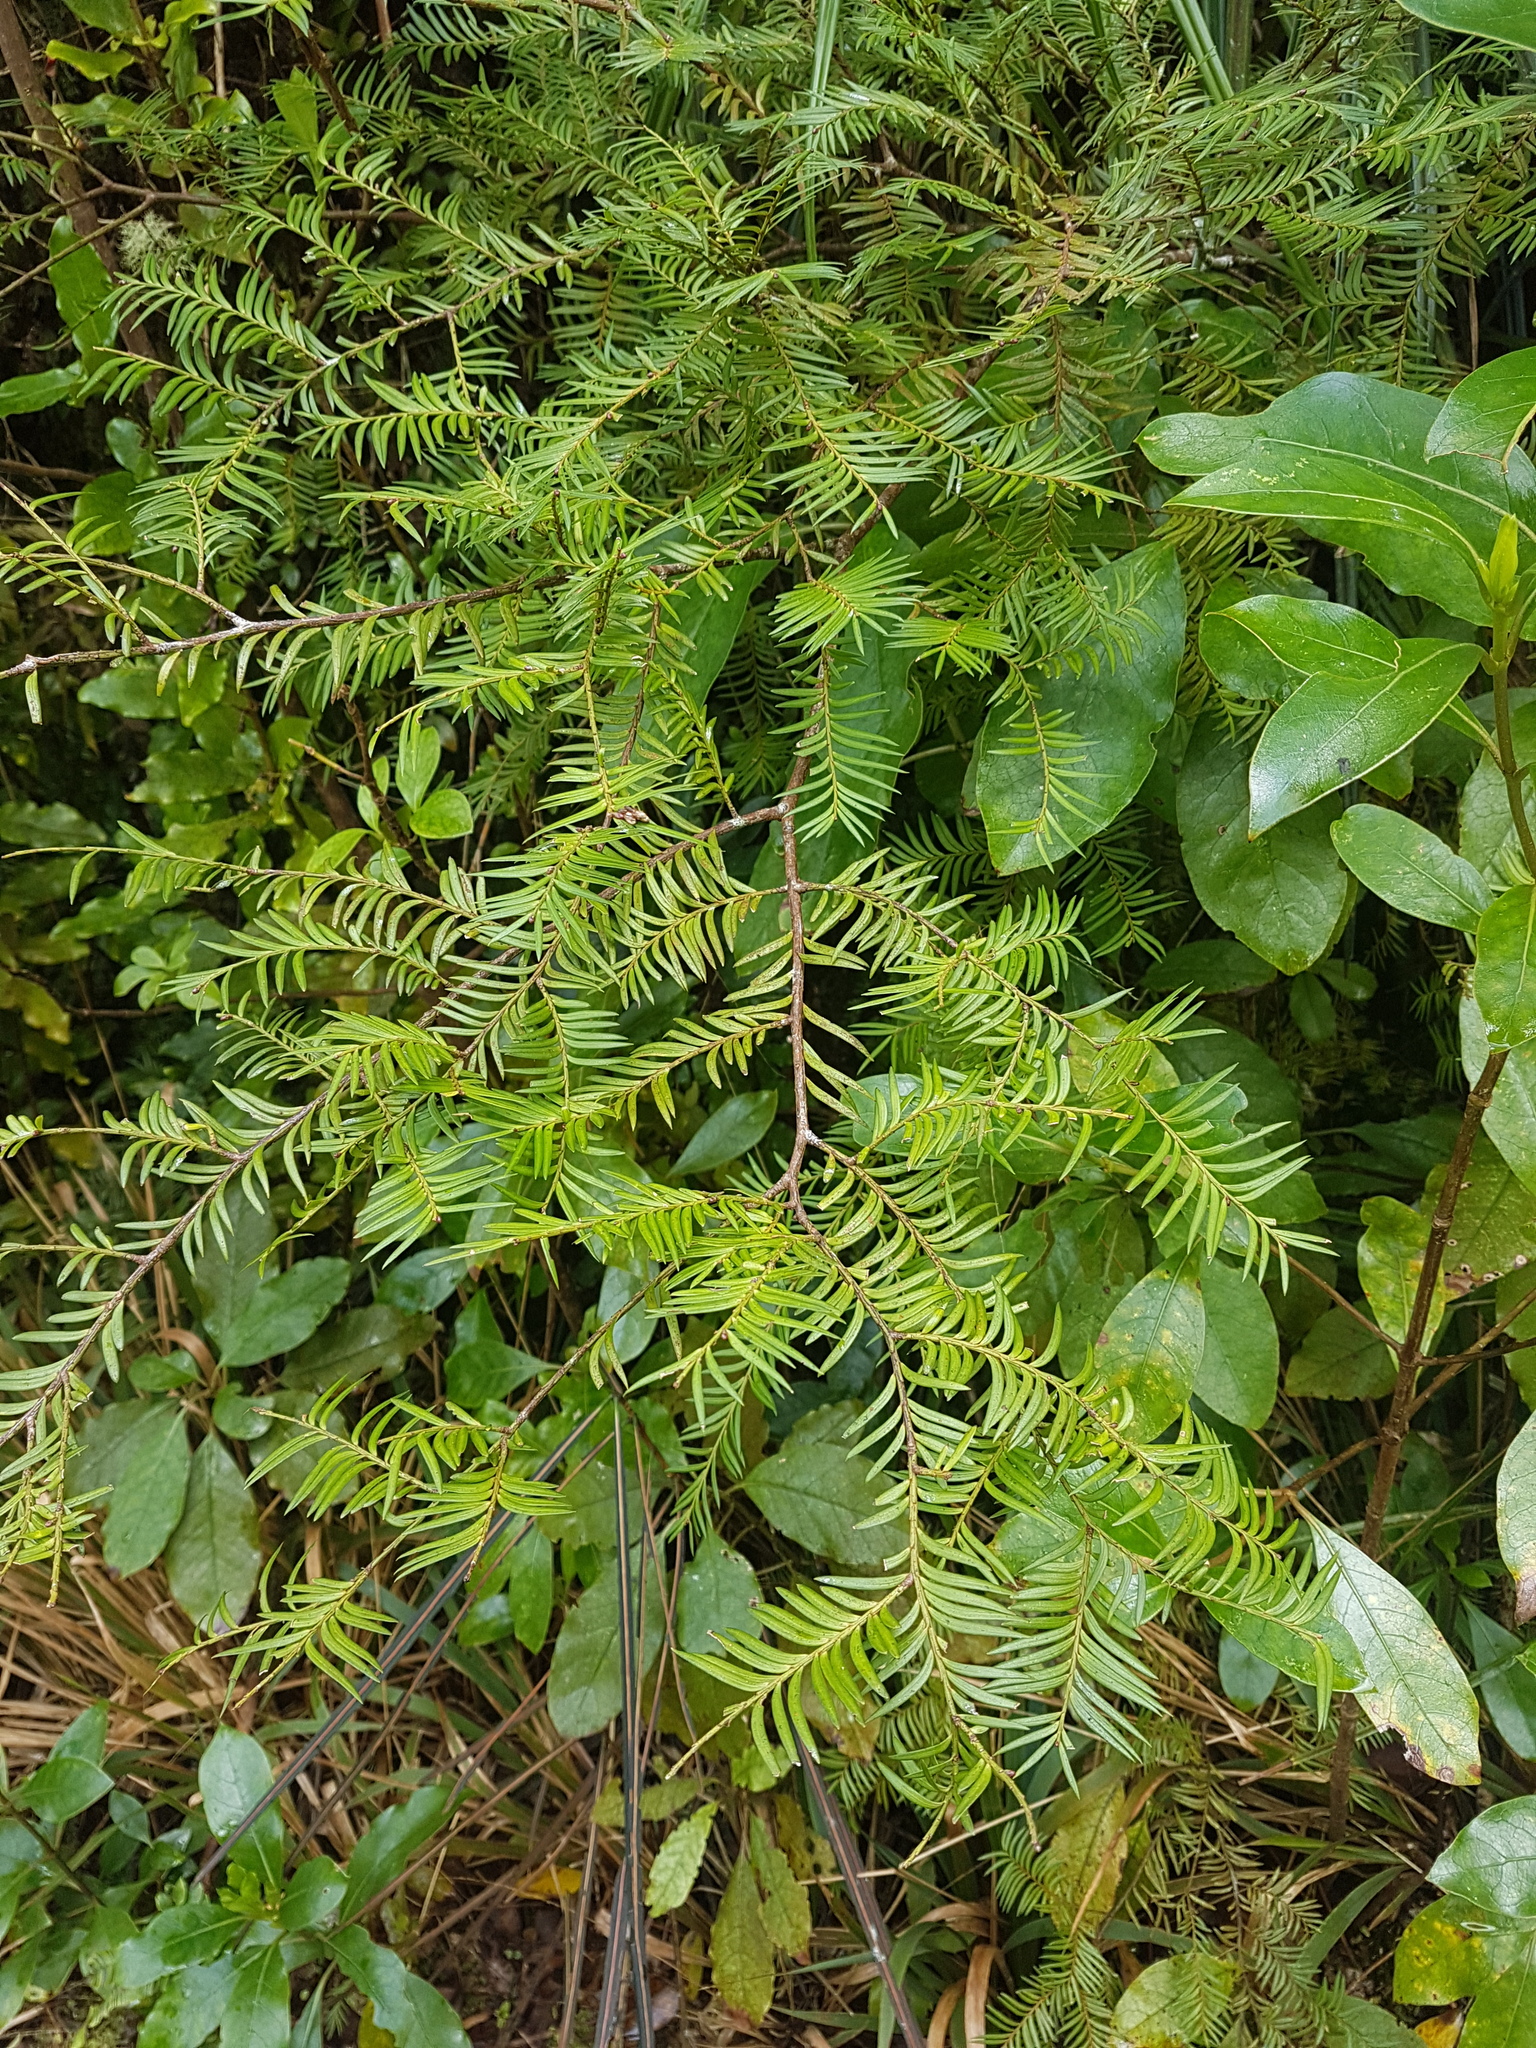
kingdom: Plantae
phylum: Tracheophyta
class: Pinopsida
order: Pinales
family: Podocarpaceae
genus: Prumnopitys
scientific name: Prumnopitys ferruginea
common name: Brown pine
